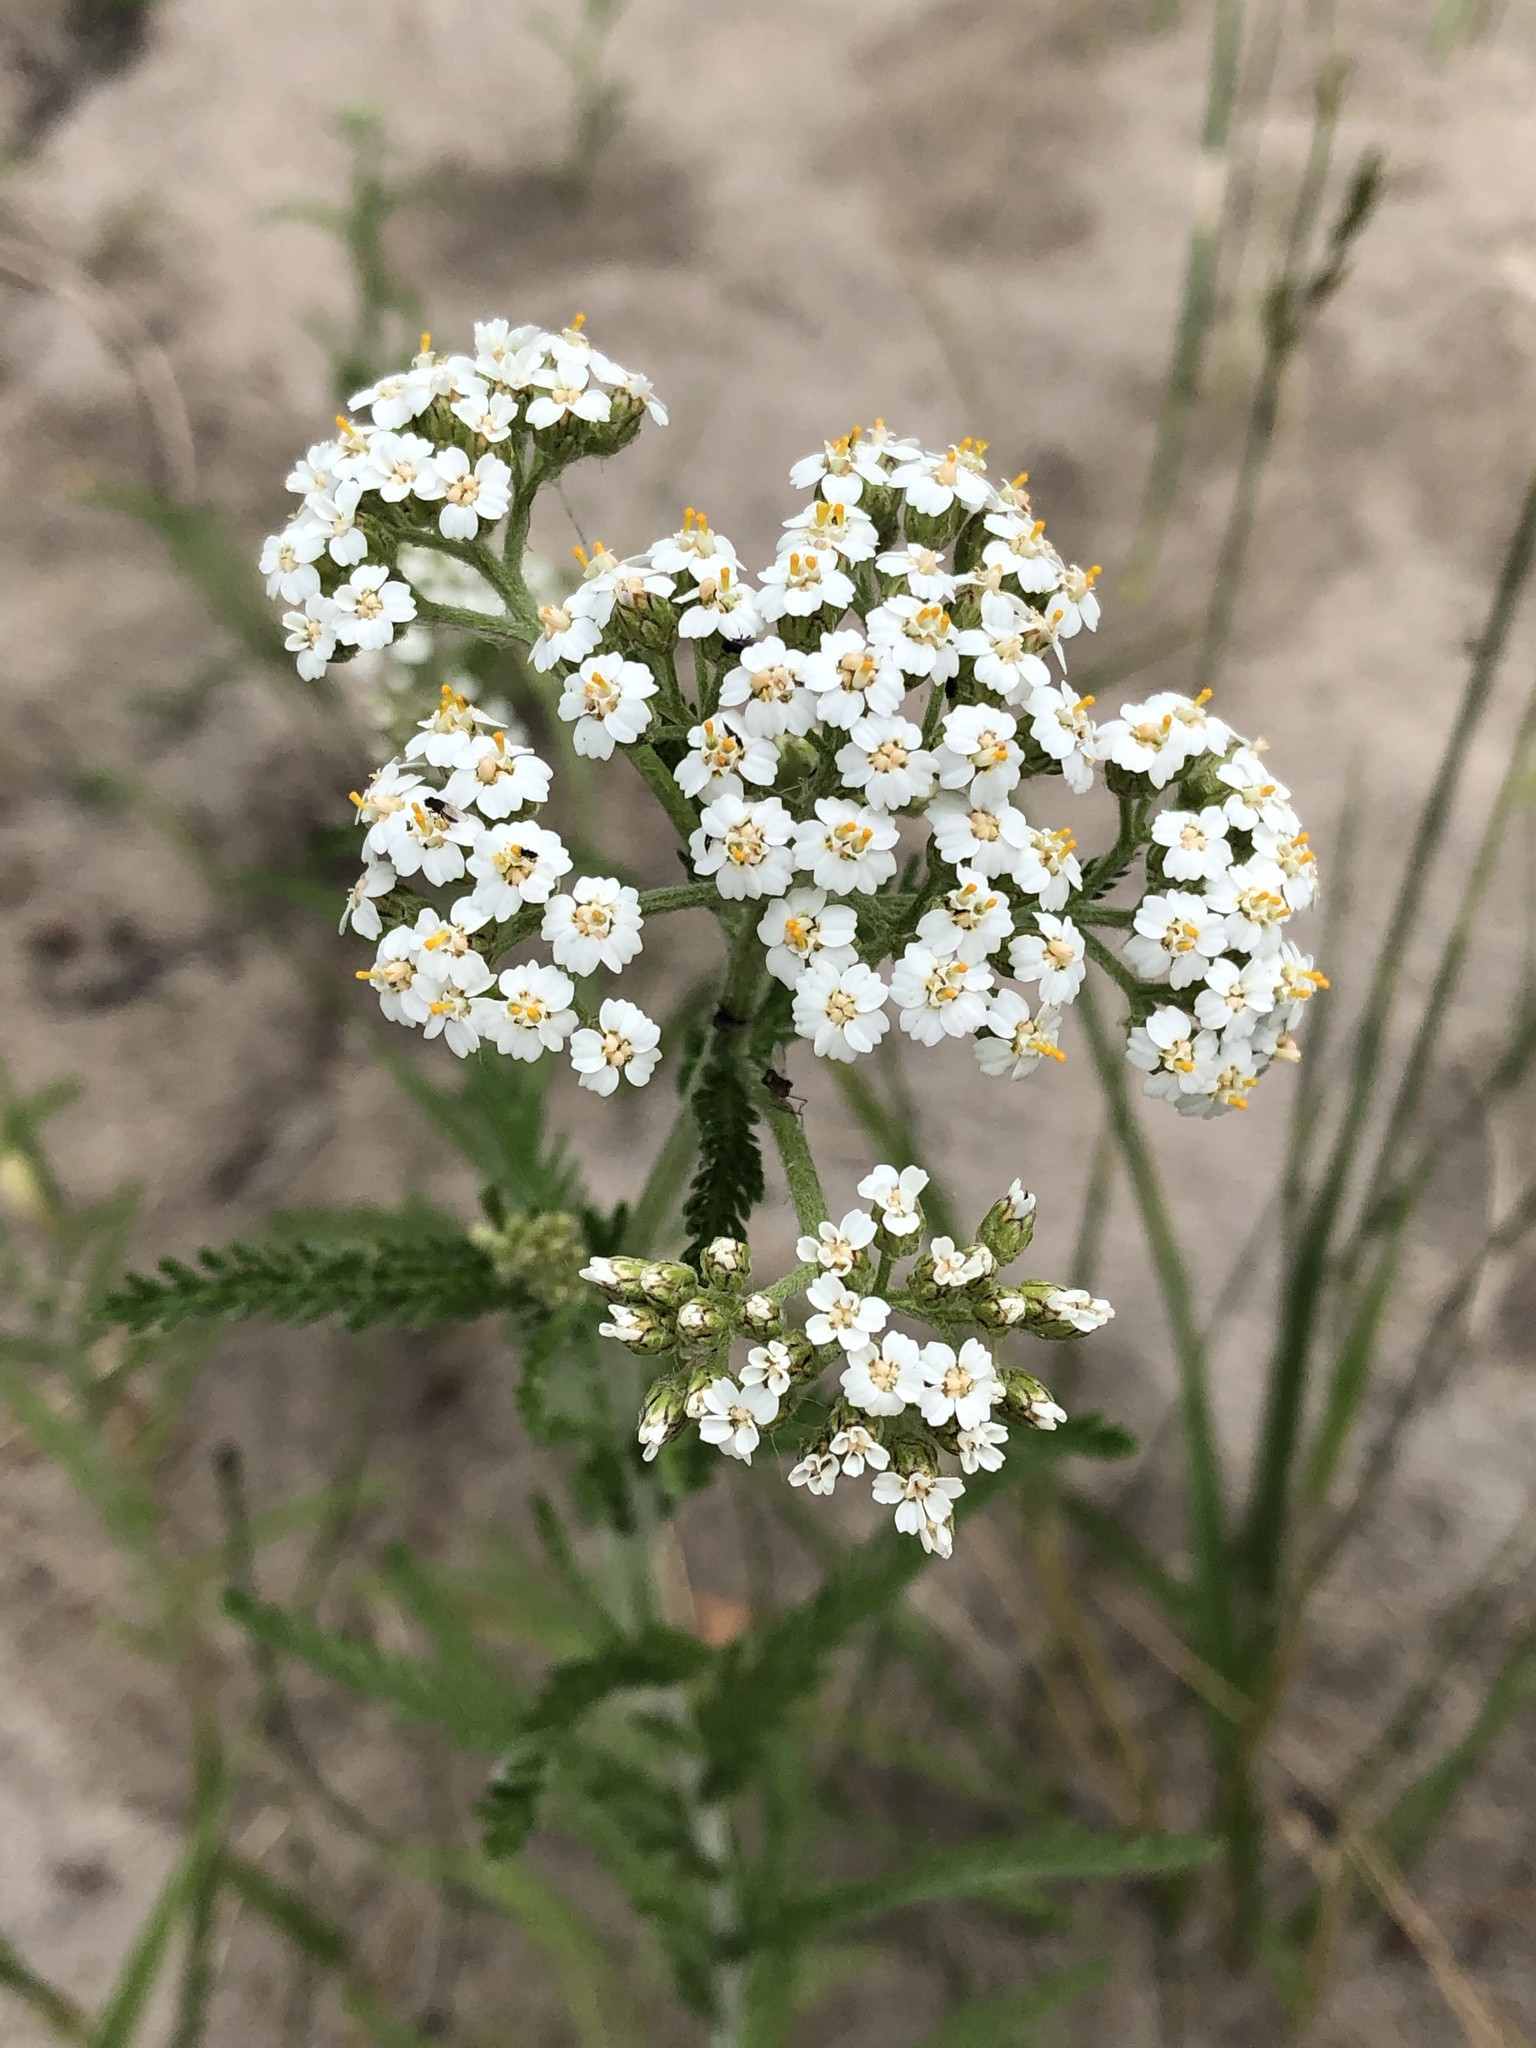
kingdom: Plantae
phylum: Tracheophyta
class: Magnoliopsida
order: Asterales
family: Asteraceae
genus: Achillea
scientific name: Achillea millefolium
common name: Yarrow
